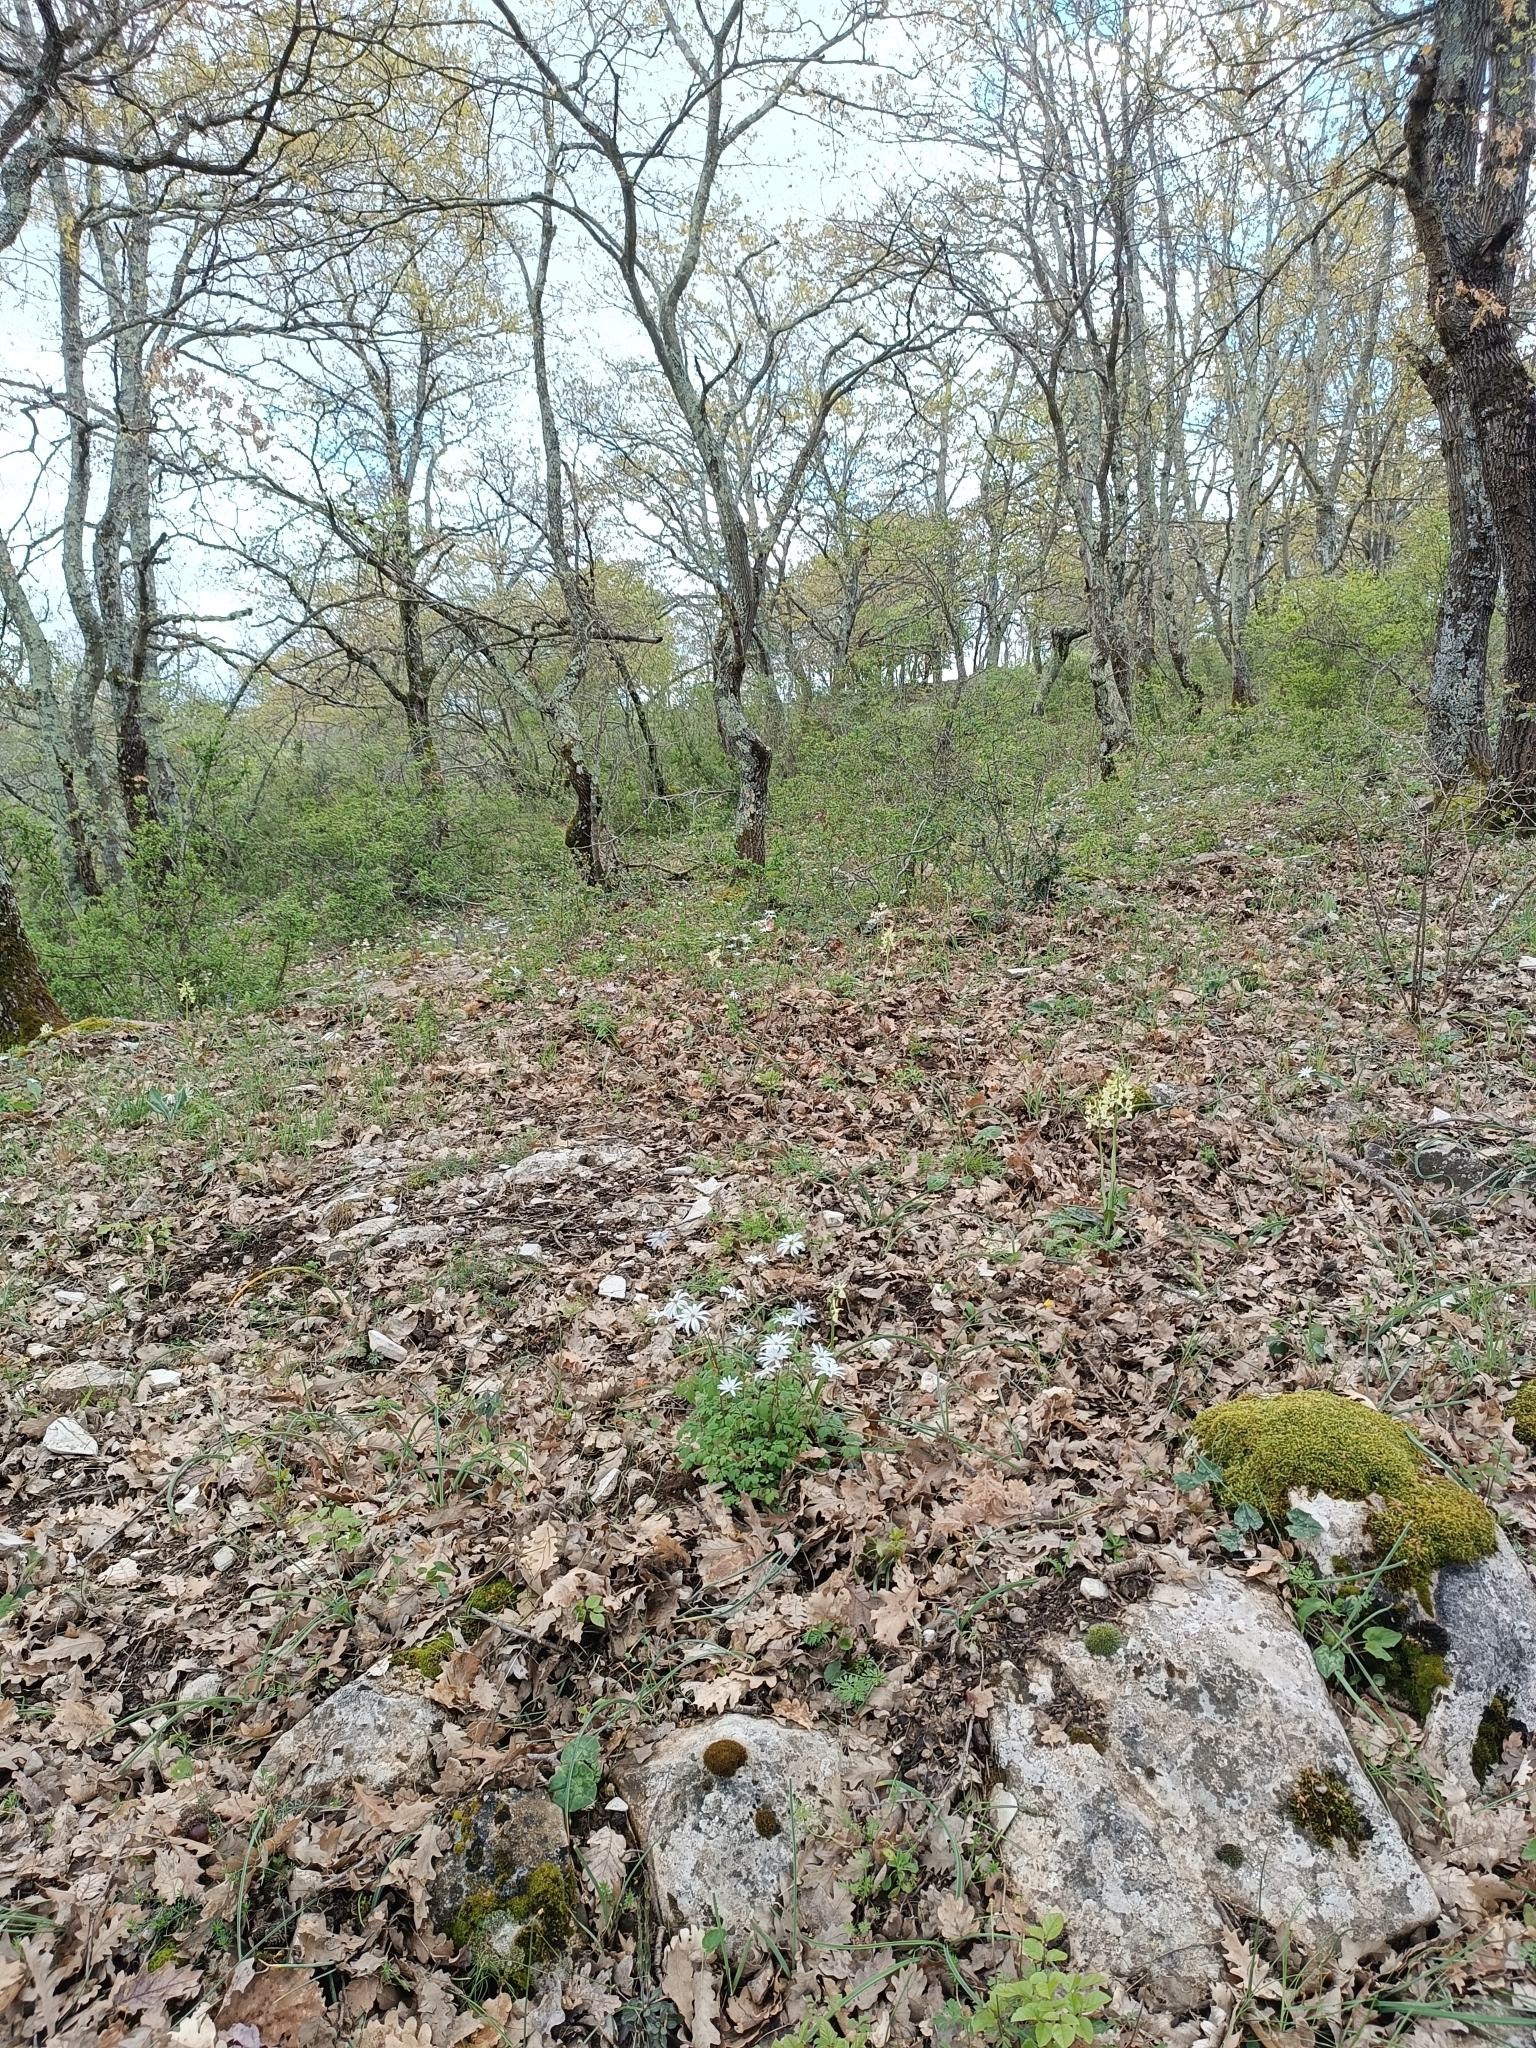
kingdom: Plantae
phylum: Tracheophyta
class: Liliopsida
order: Asparagales
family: Orchidaceae
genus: Orchis
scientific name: Orchis provincialis
